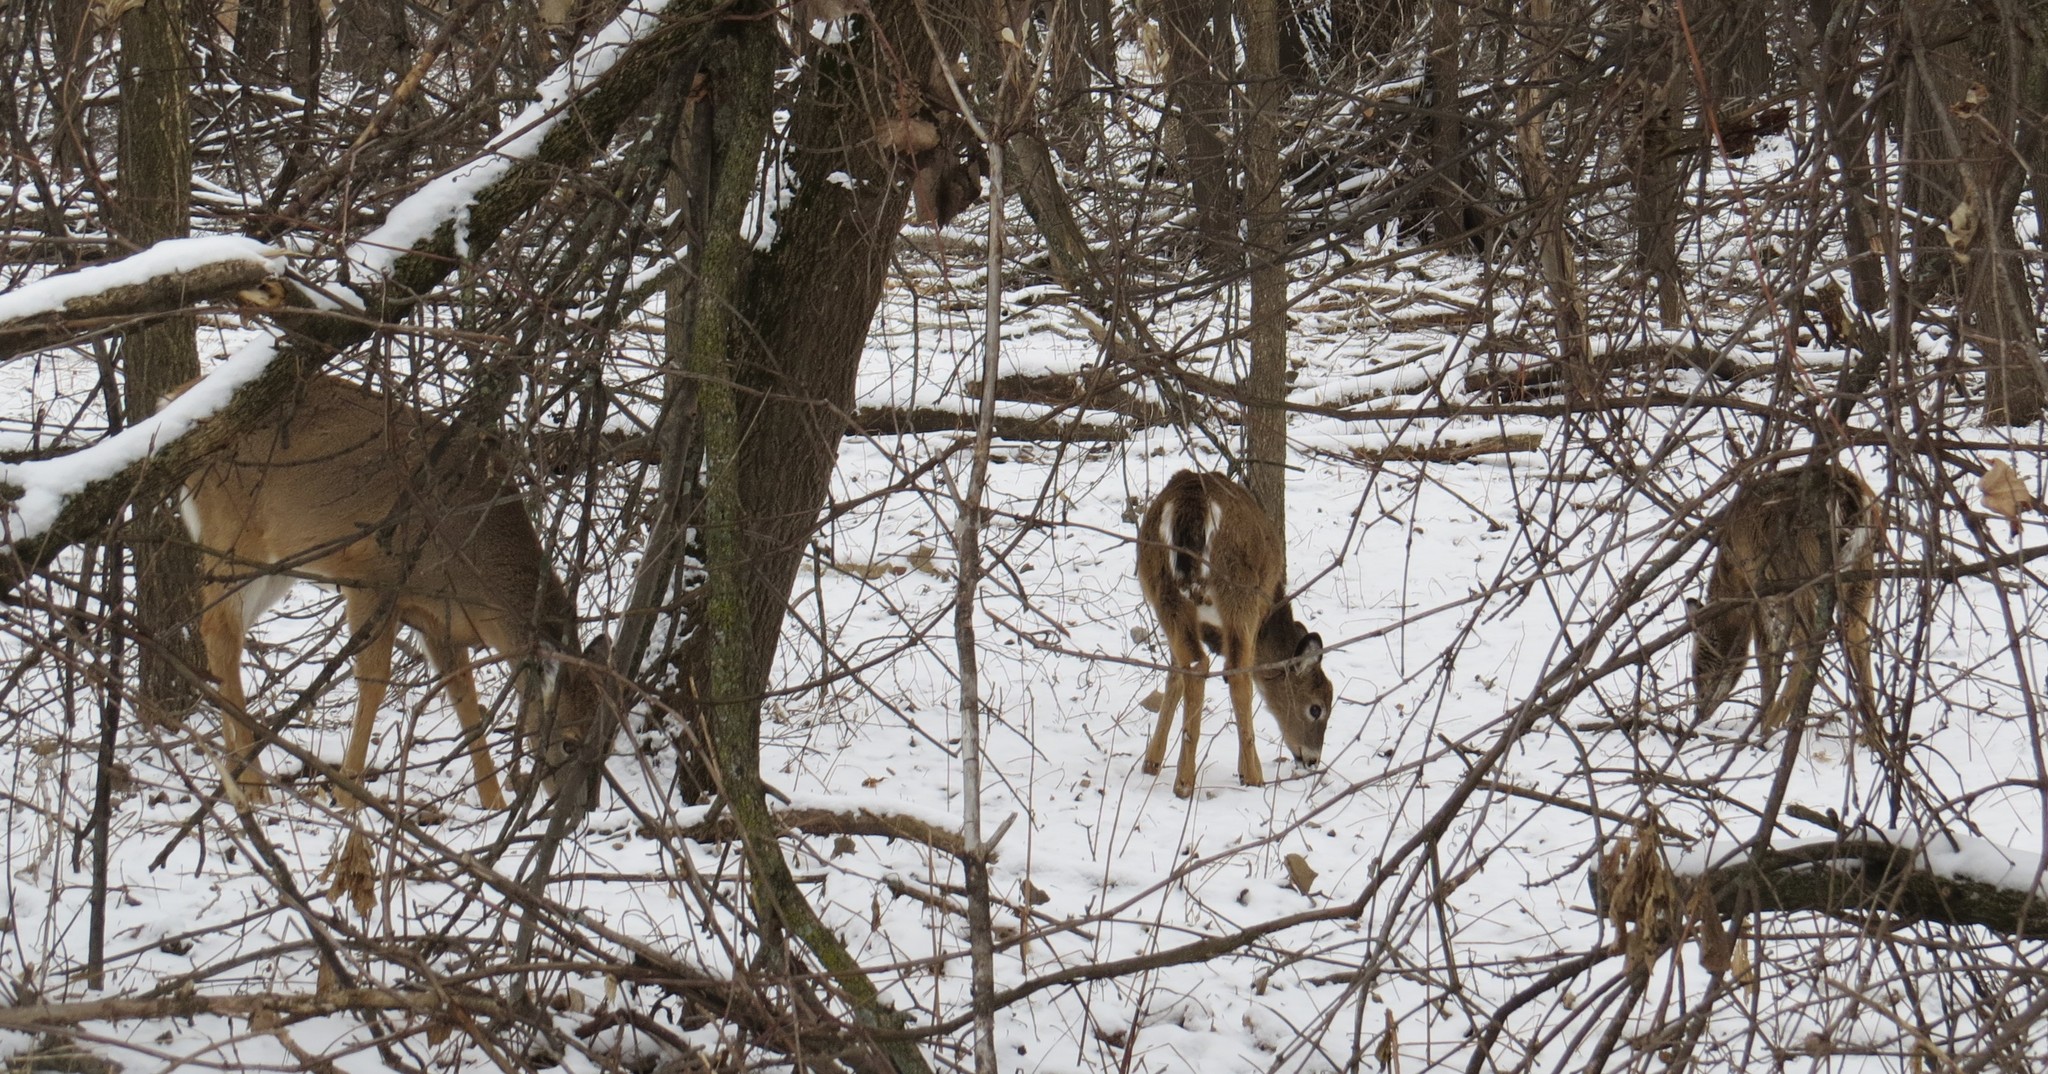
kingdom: Animalia
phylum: Chordata
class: Mammalia
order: Artiodactyla
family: Cervidae
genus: Odocoileus
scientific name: Odocoileus virginianus
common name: White-tailed deer
